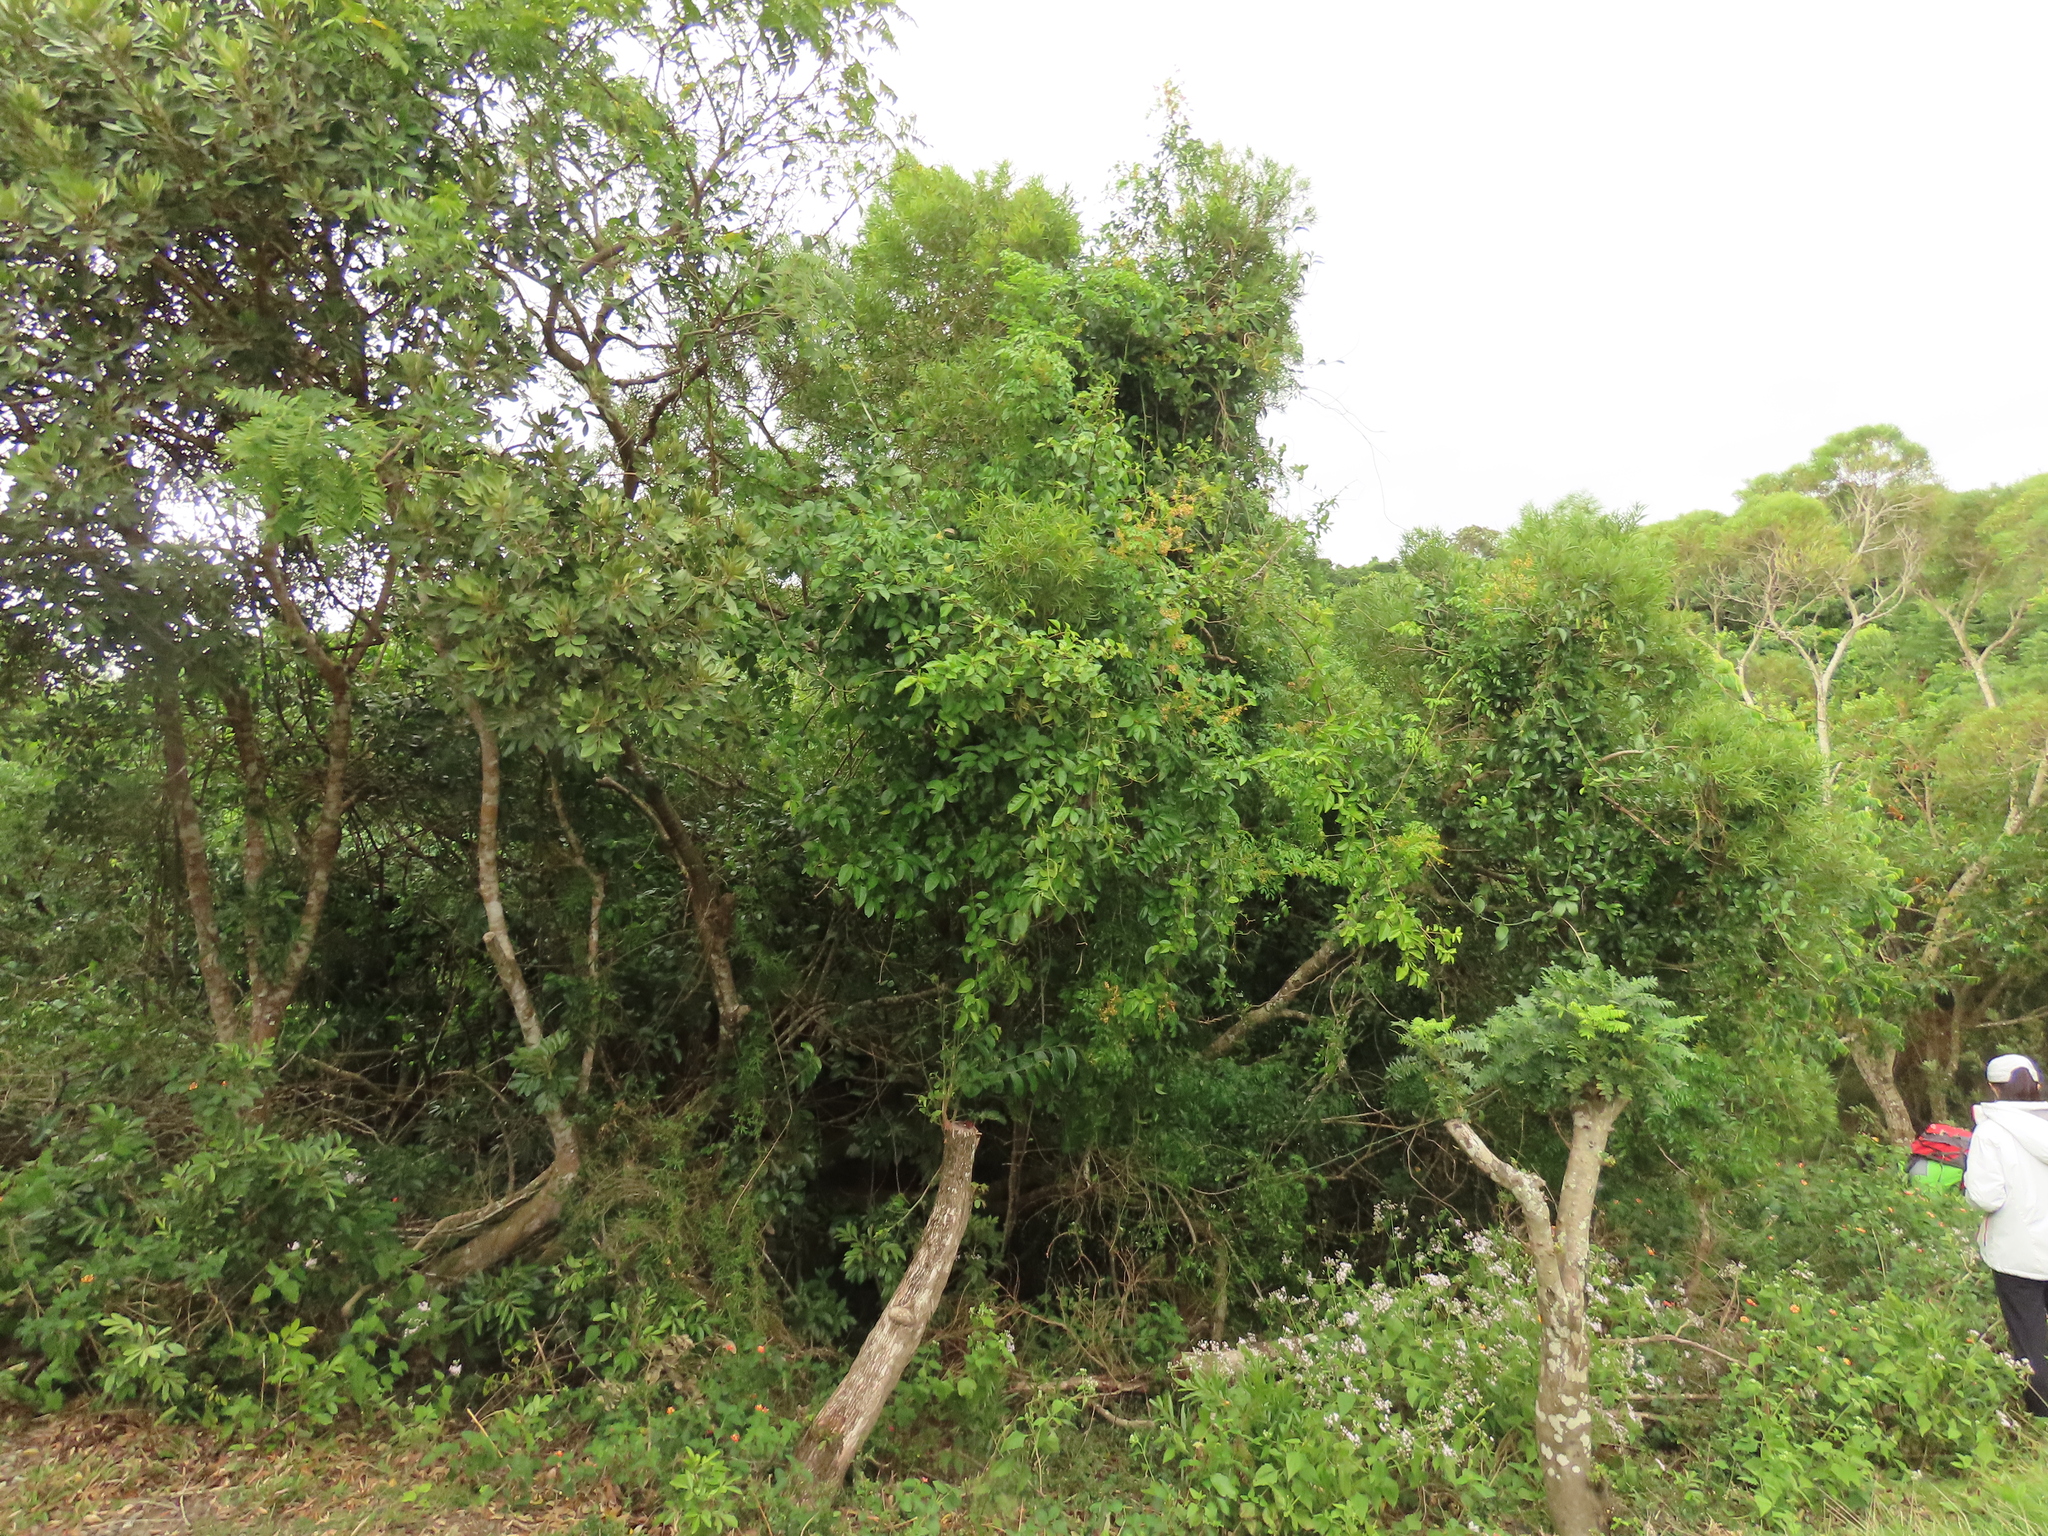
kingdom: Plantae
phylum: Tracheophyta
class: Magnoliopsida
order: Cucurbitales
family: Cucurbitaceae
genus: Neoalsomitra
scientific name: Neoalsomitra clavigera
